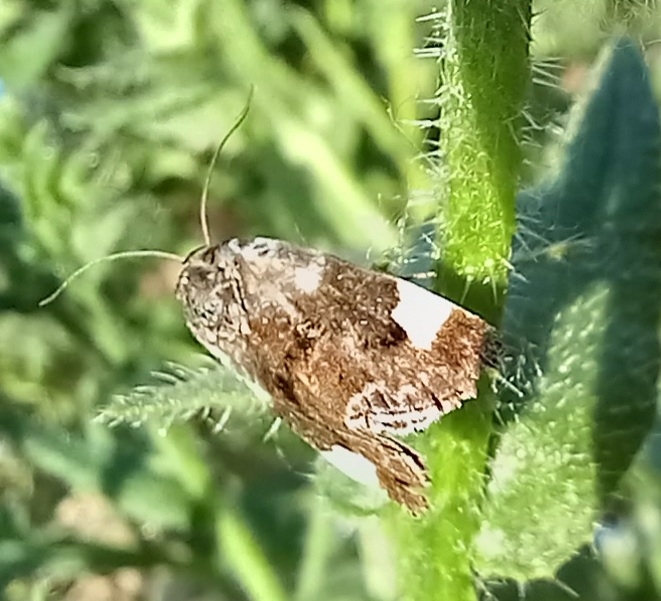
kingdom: Animalia
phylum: Arthropoda
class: Insecta
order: Lepidoptera
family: Noctuidae
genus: Acontia
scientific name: Acontia lucida
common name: Pale shoulder
